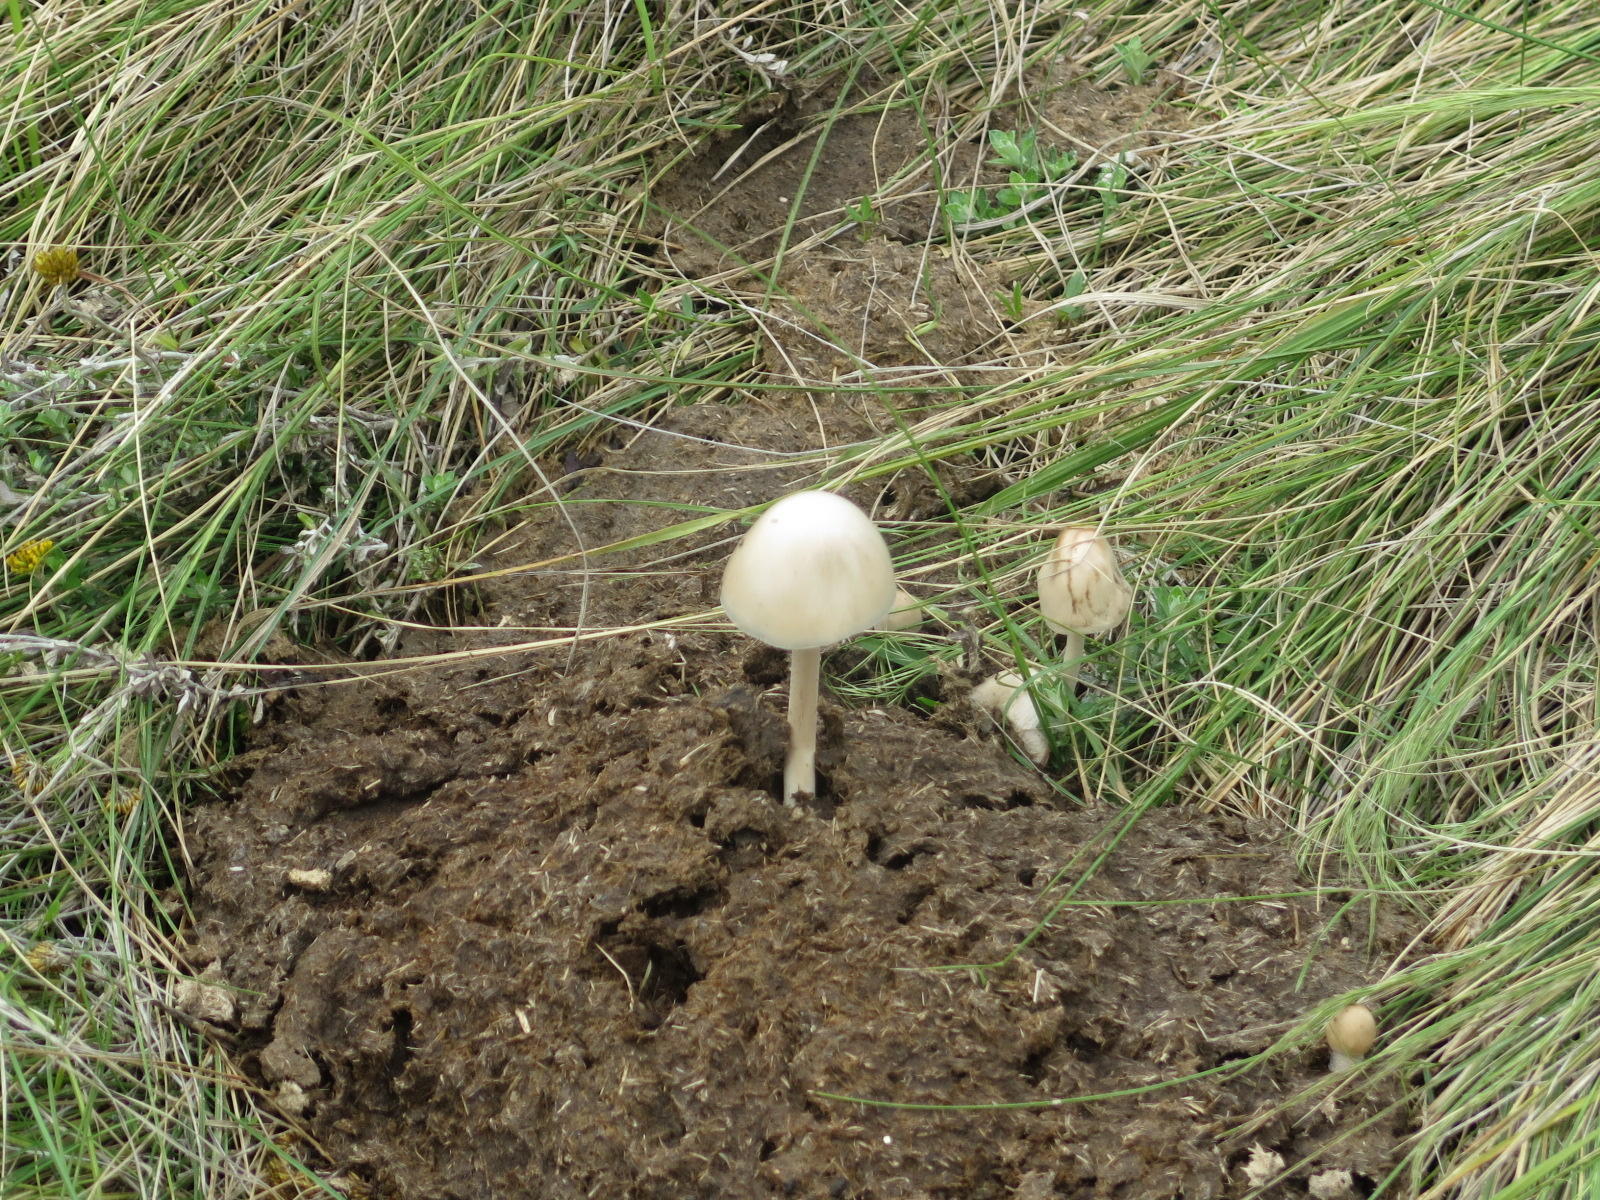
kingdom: Fungi
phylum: Basidiomycota
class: Agaricomycetes
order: Agaricales
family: Bolbitiaceae
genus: Panaeolus
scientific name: Panaeolus antillarum
